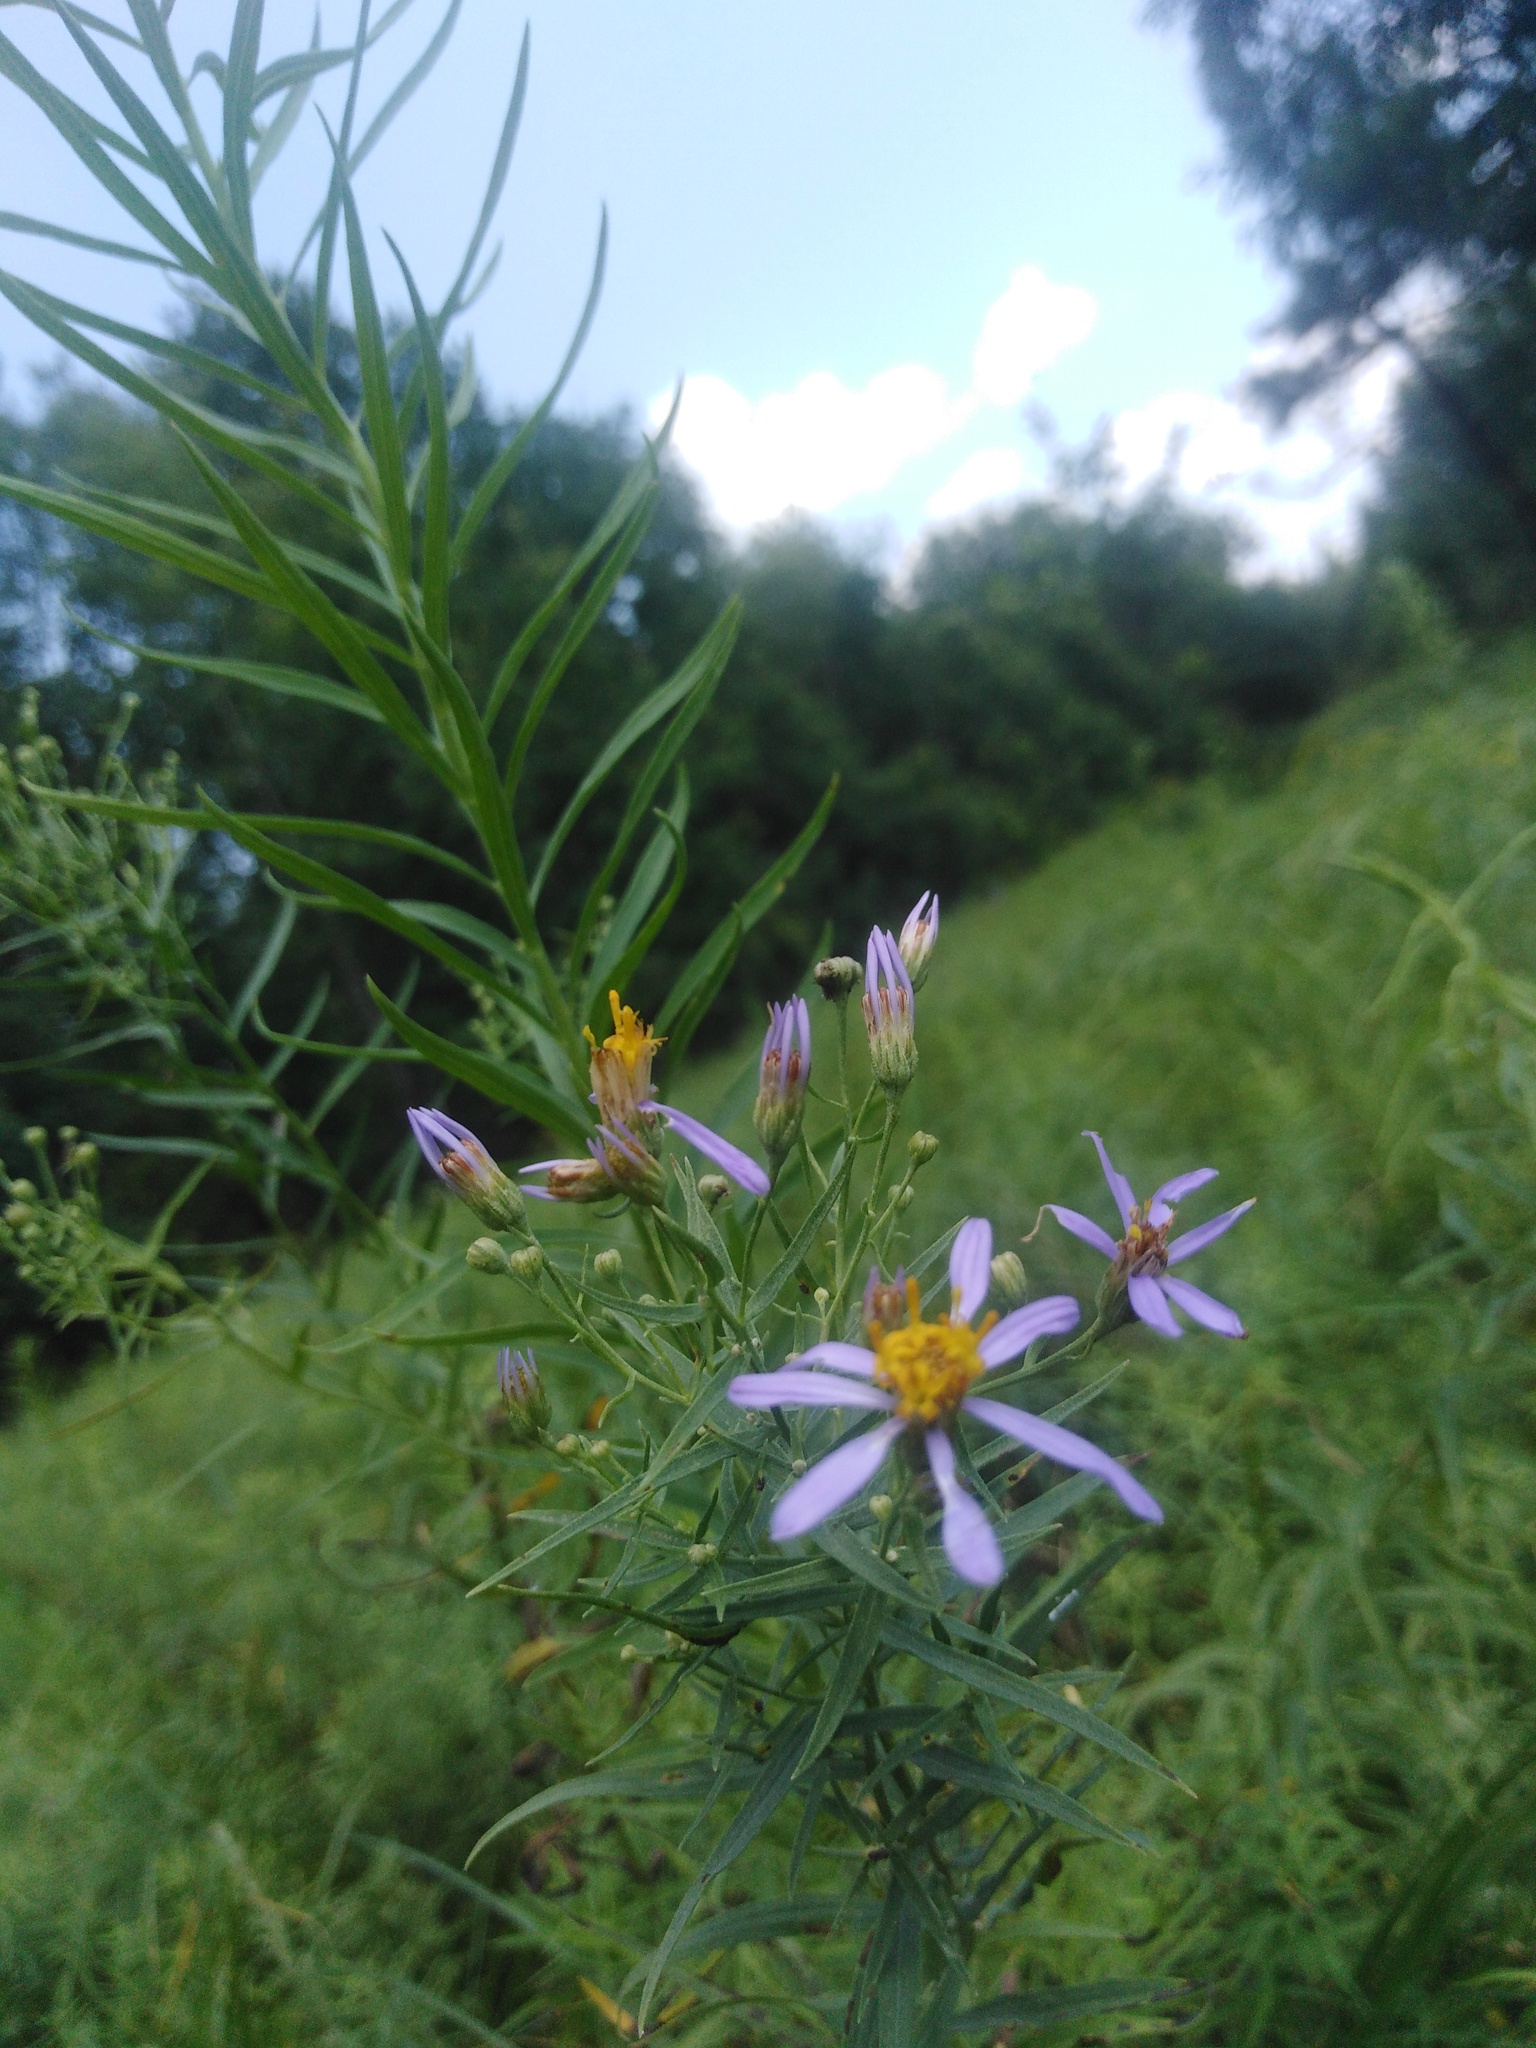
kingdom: Plantae
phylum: Tracheophyta
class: Magnoliopsida
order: Asterales
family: Asteraceae
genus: Galatella
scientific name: Galatella sedifolia
